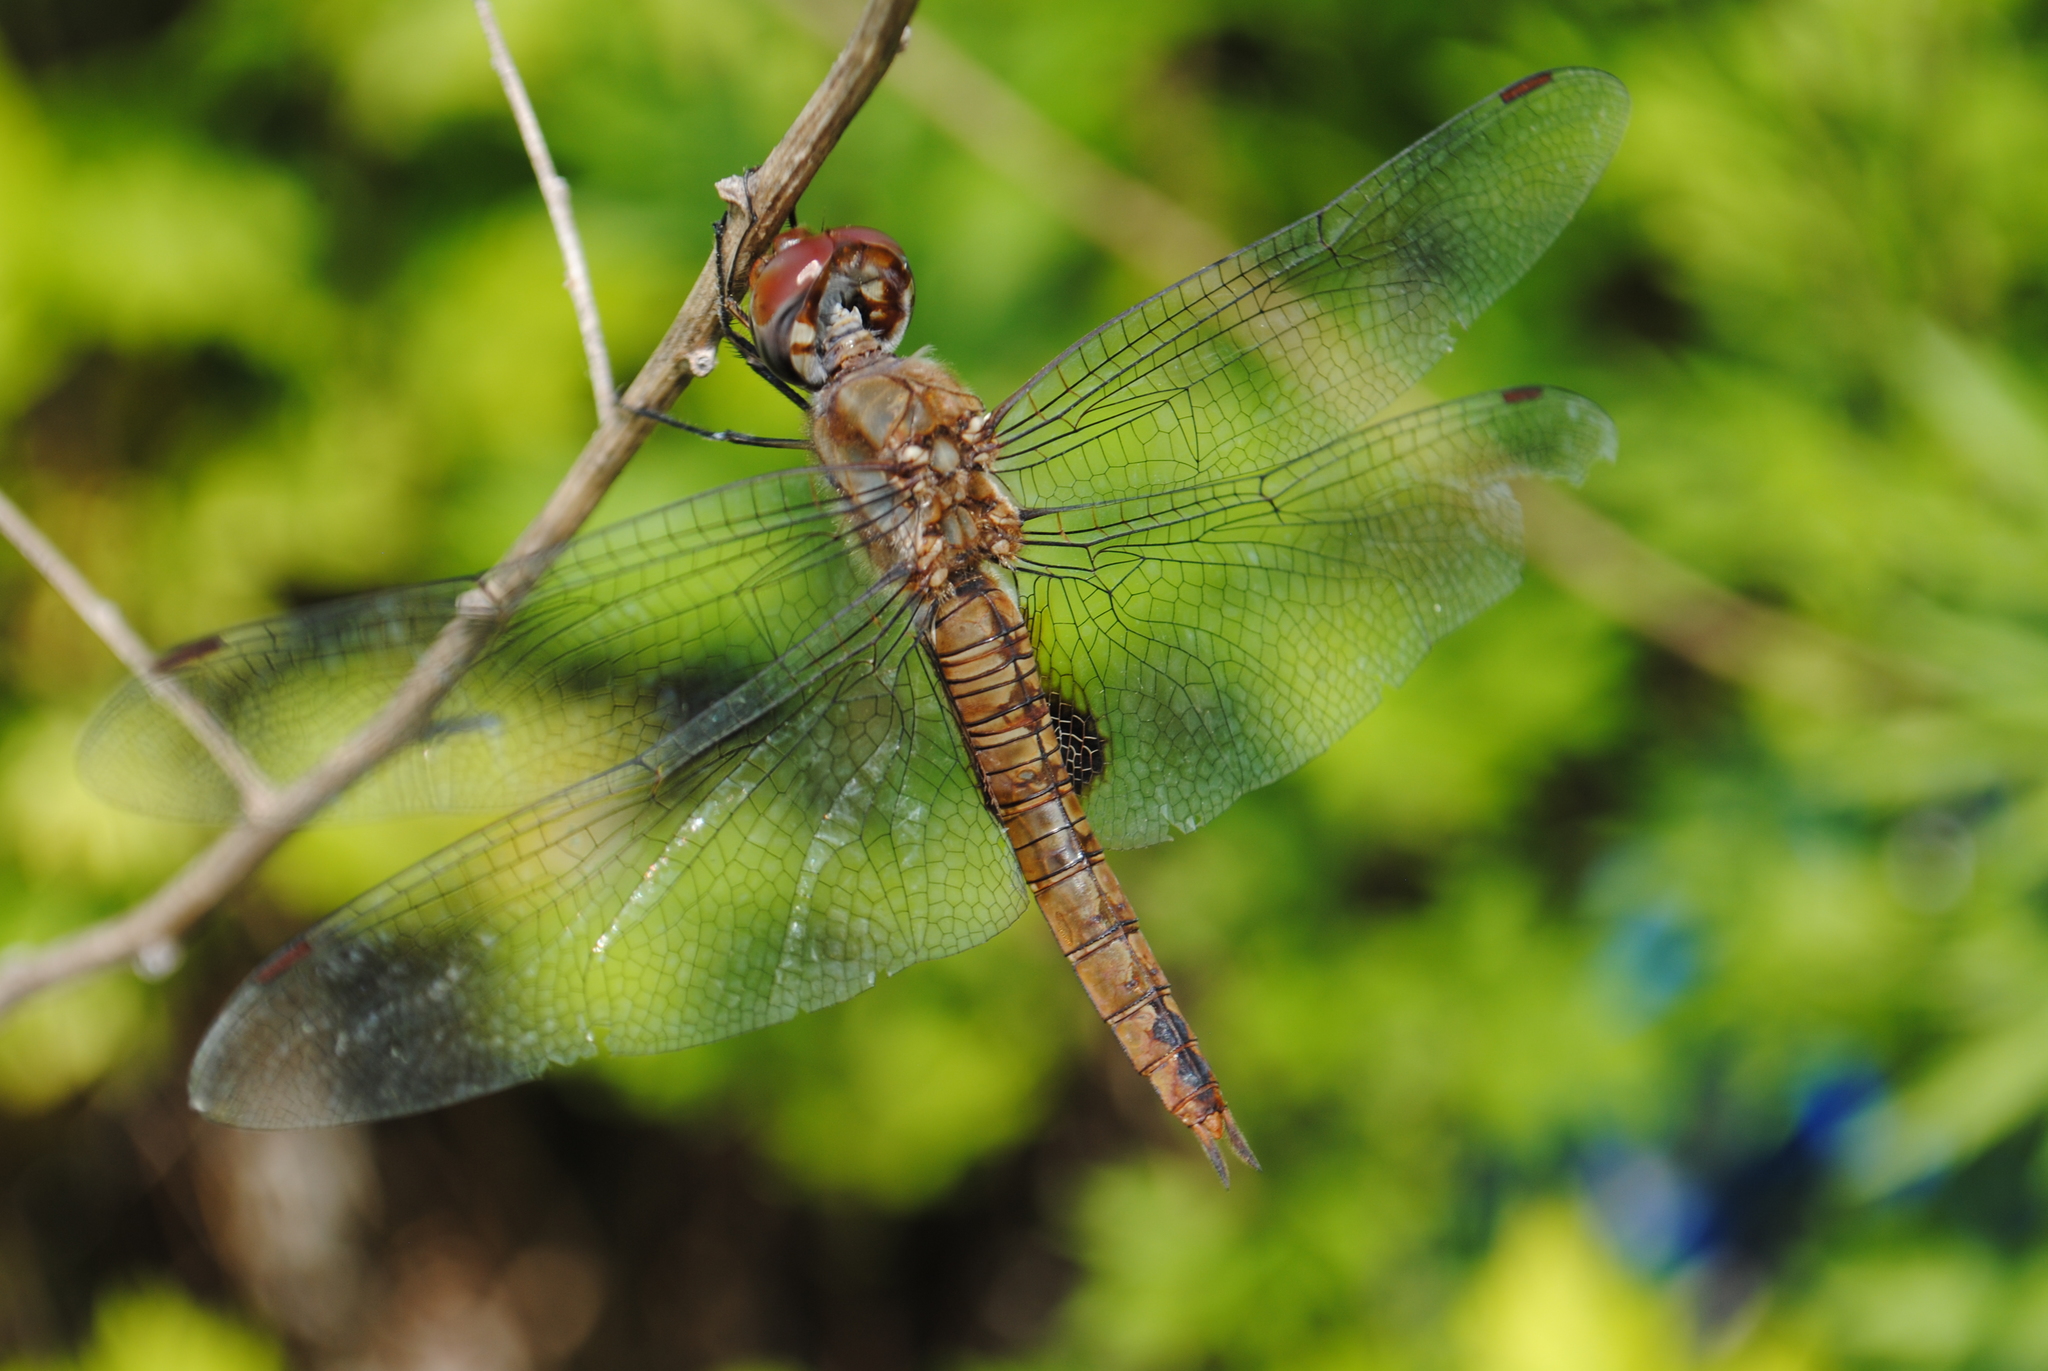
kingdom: Animalia
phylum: Arthropoda
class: Insecta
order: Odonata
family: Libellulidae
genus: Pantala
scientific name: Pantala hymenaea
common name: Spot-winged glider
